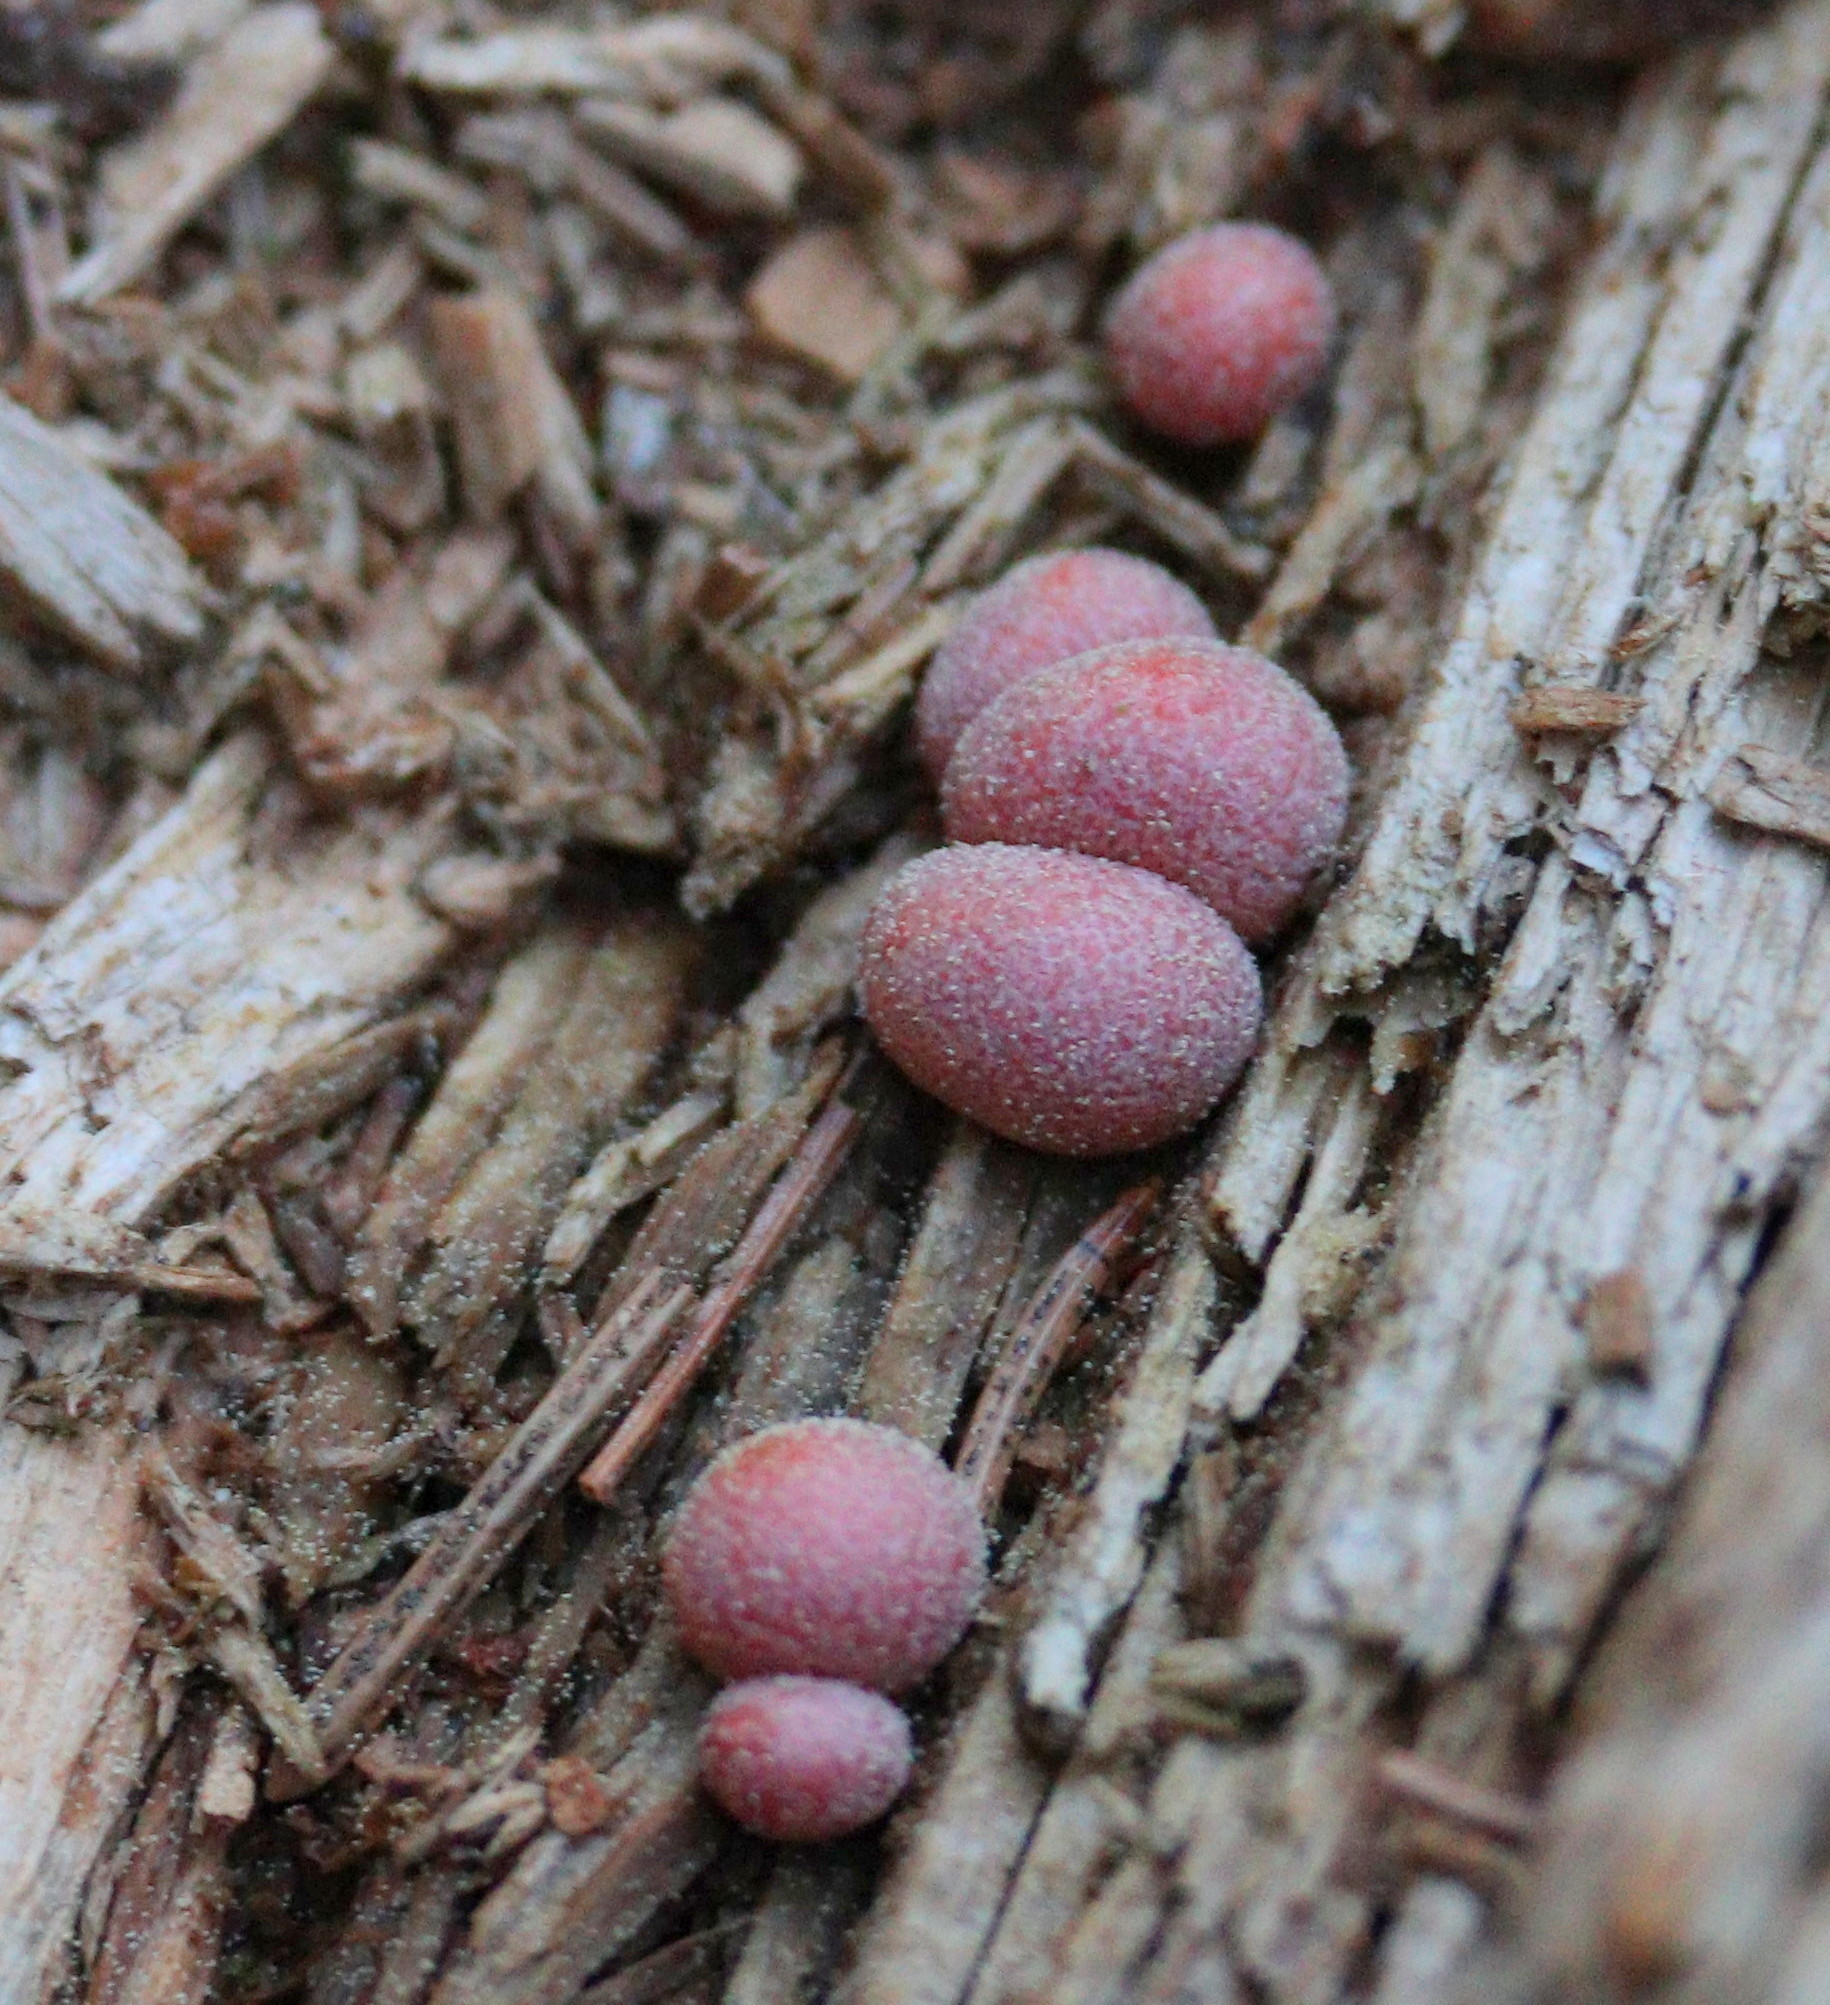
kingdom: Protozoa
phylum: Mycetozoa
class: Myxomycetes
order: Cribrariales
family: Tubiferaceae
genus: Lycogala
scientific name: Lycogala epidendrum
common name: Wolf's milk
